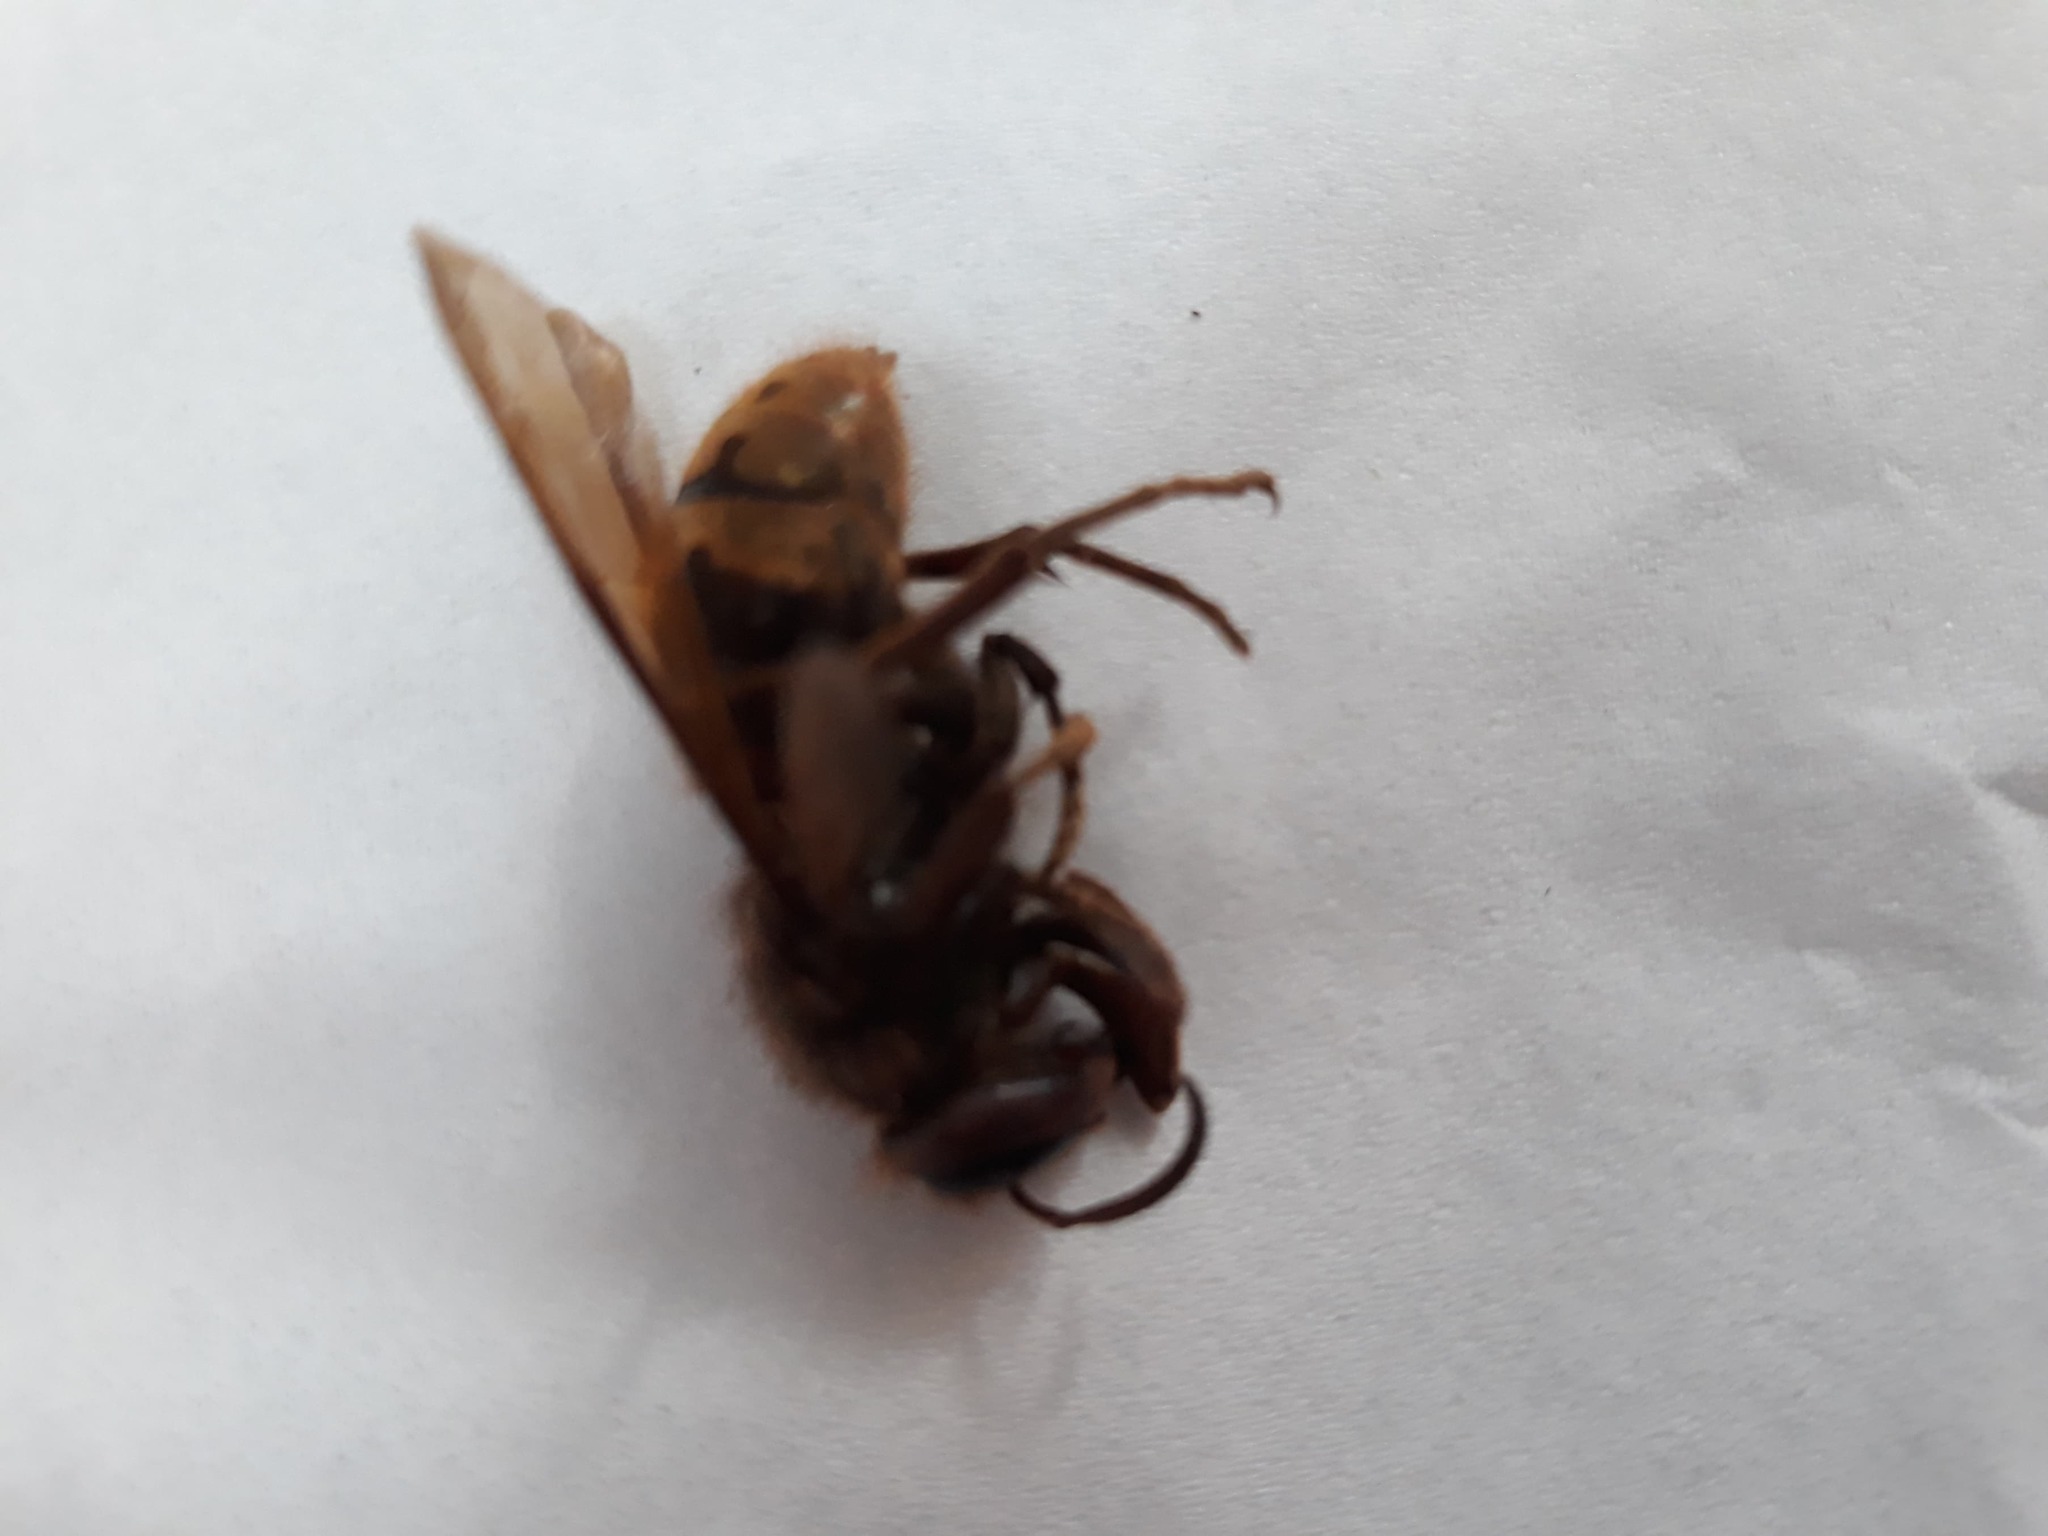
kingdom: Animalia
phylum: Arthropoda
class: Insecta
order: Hymenoptera
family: Vespidae
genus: Vespa
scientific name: Vespa crabro
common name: Hornet
